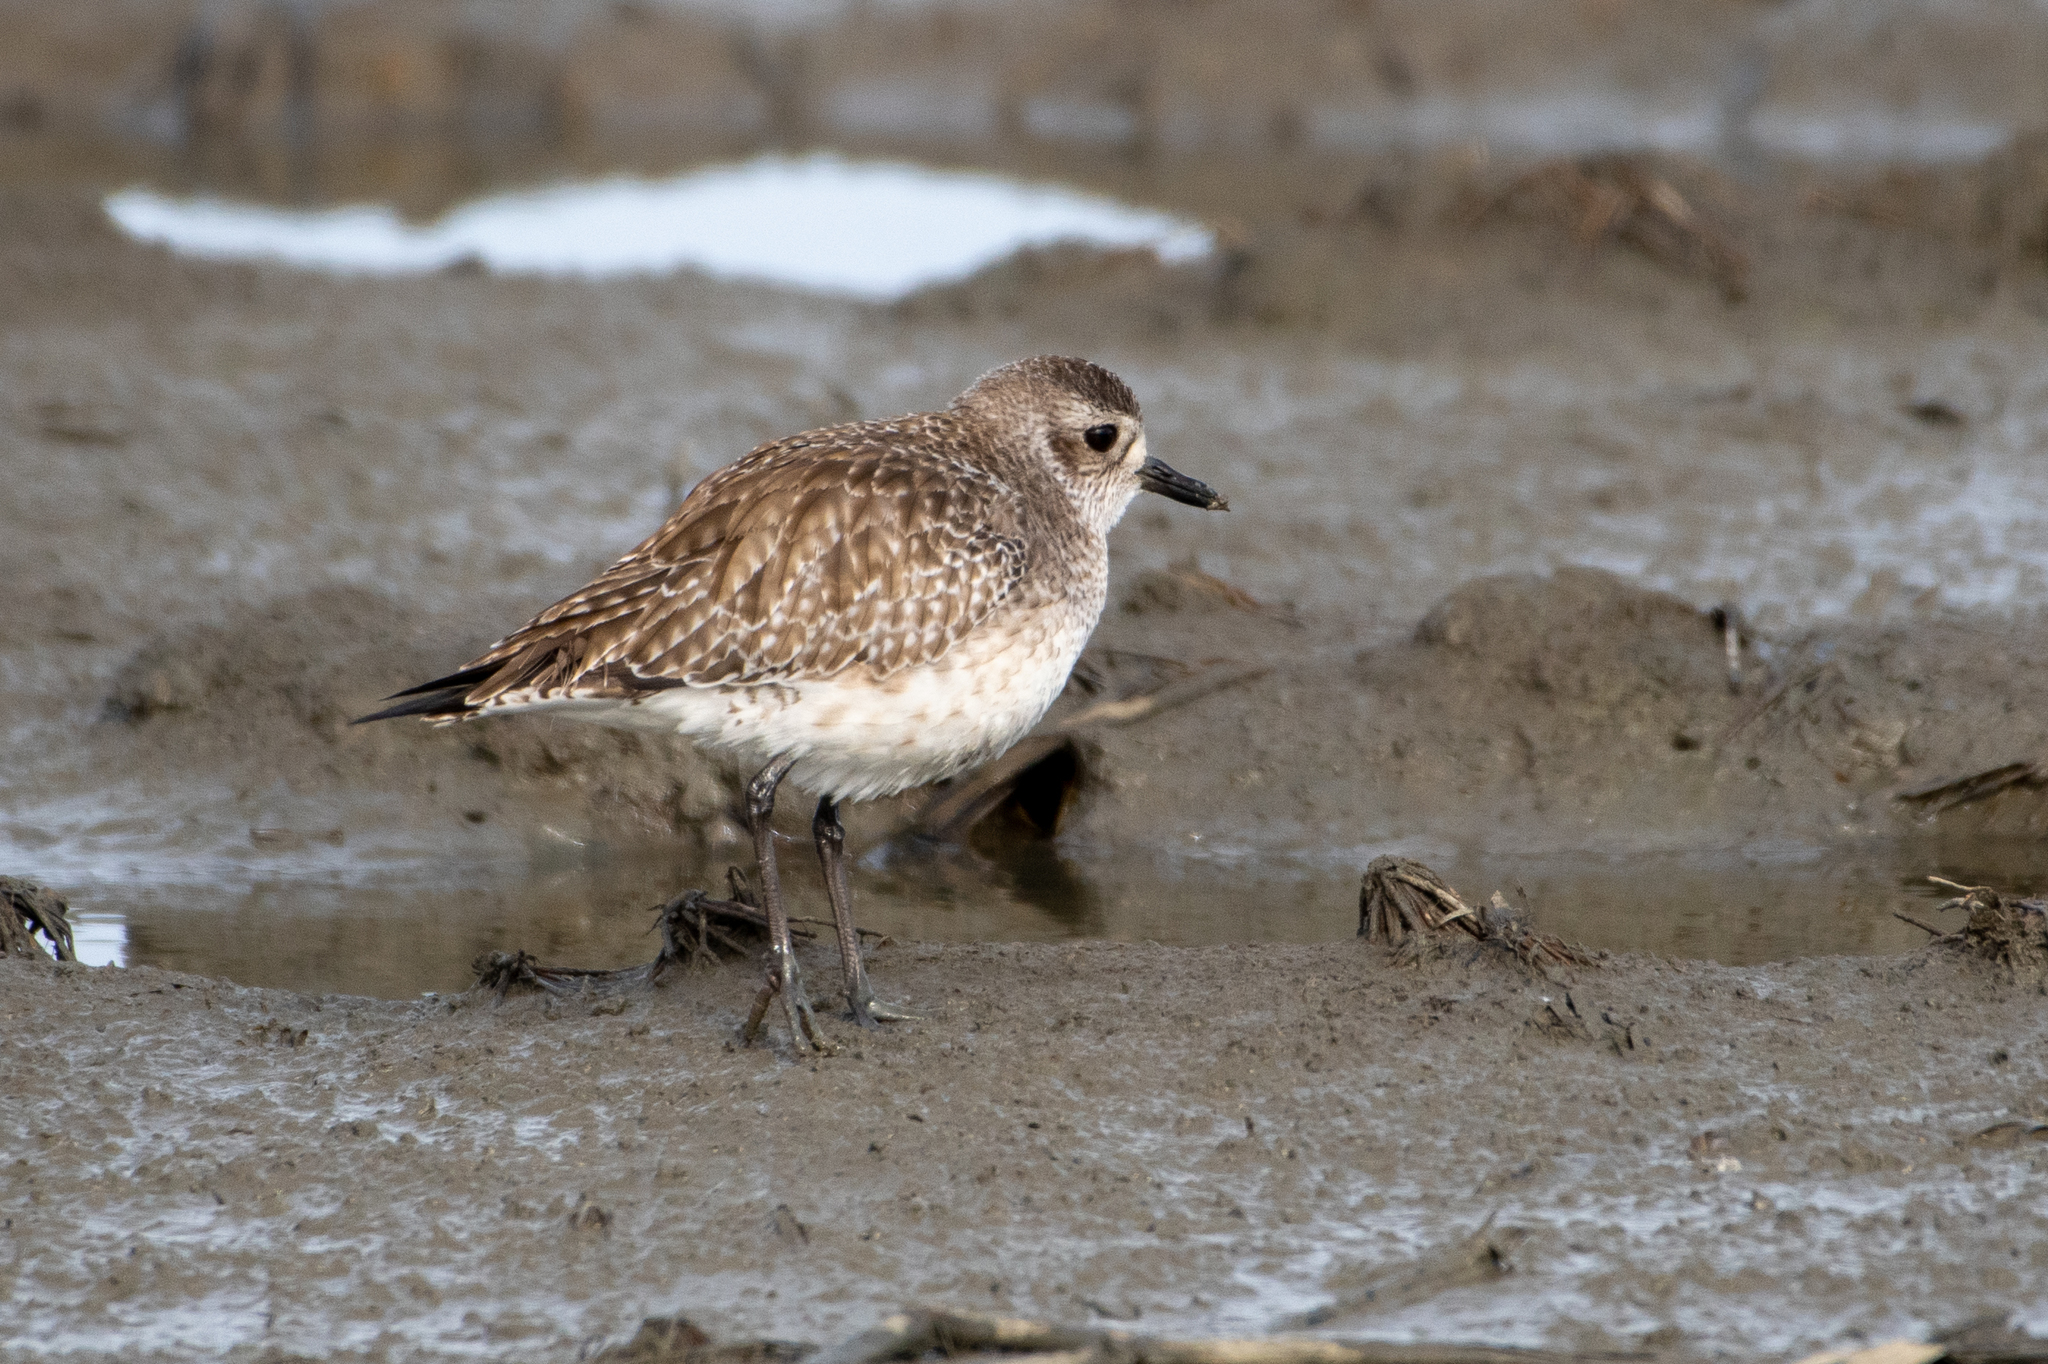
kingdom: Animalia
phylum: Chordata
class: Aves
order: Charadriiformes
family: Charadriidae
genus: Pluvialis
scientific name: Pluvialis squatarola
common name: Grey plover
